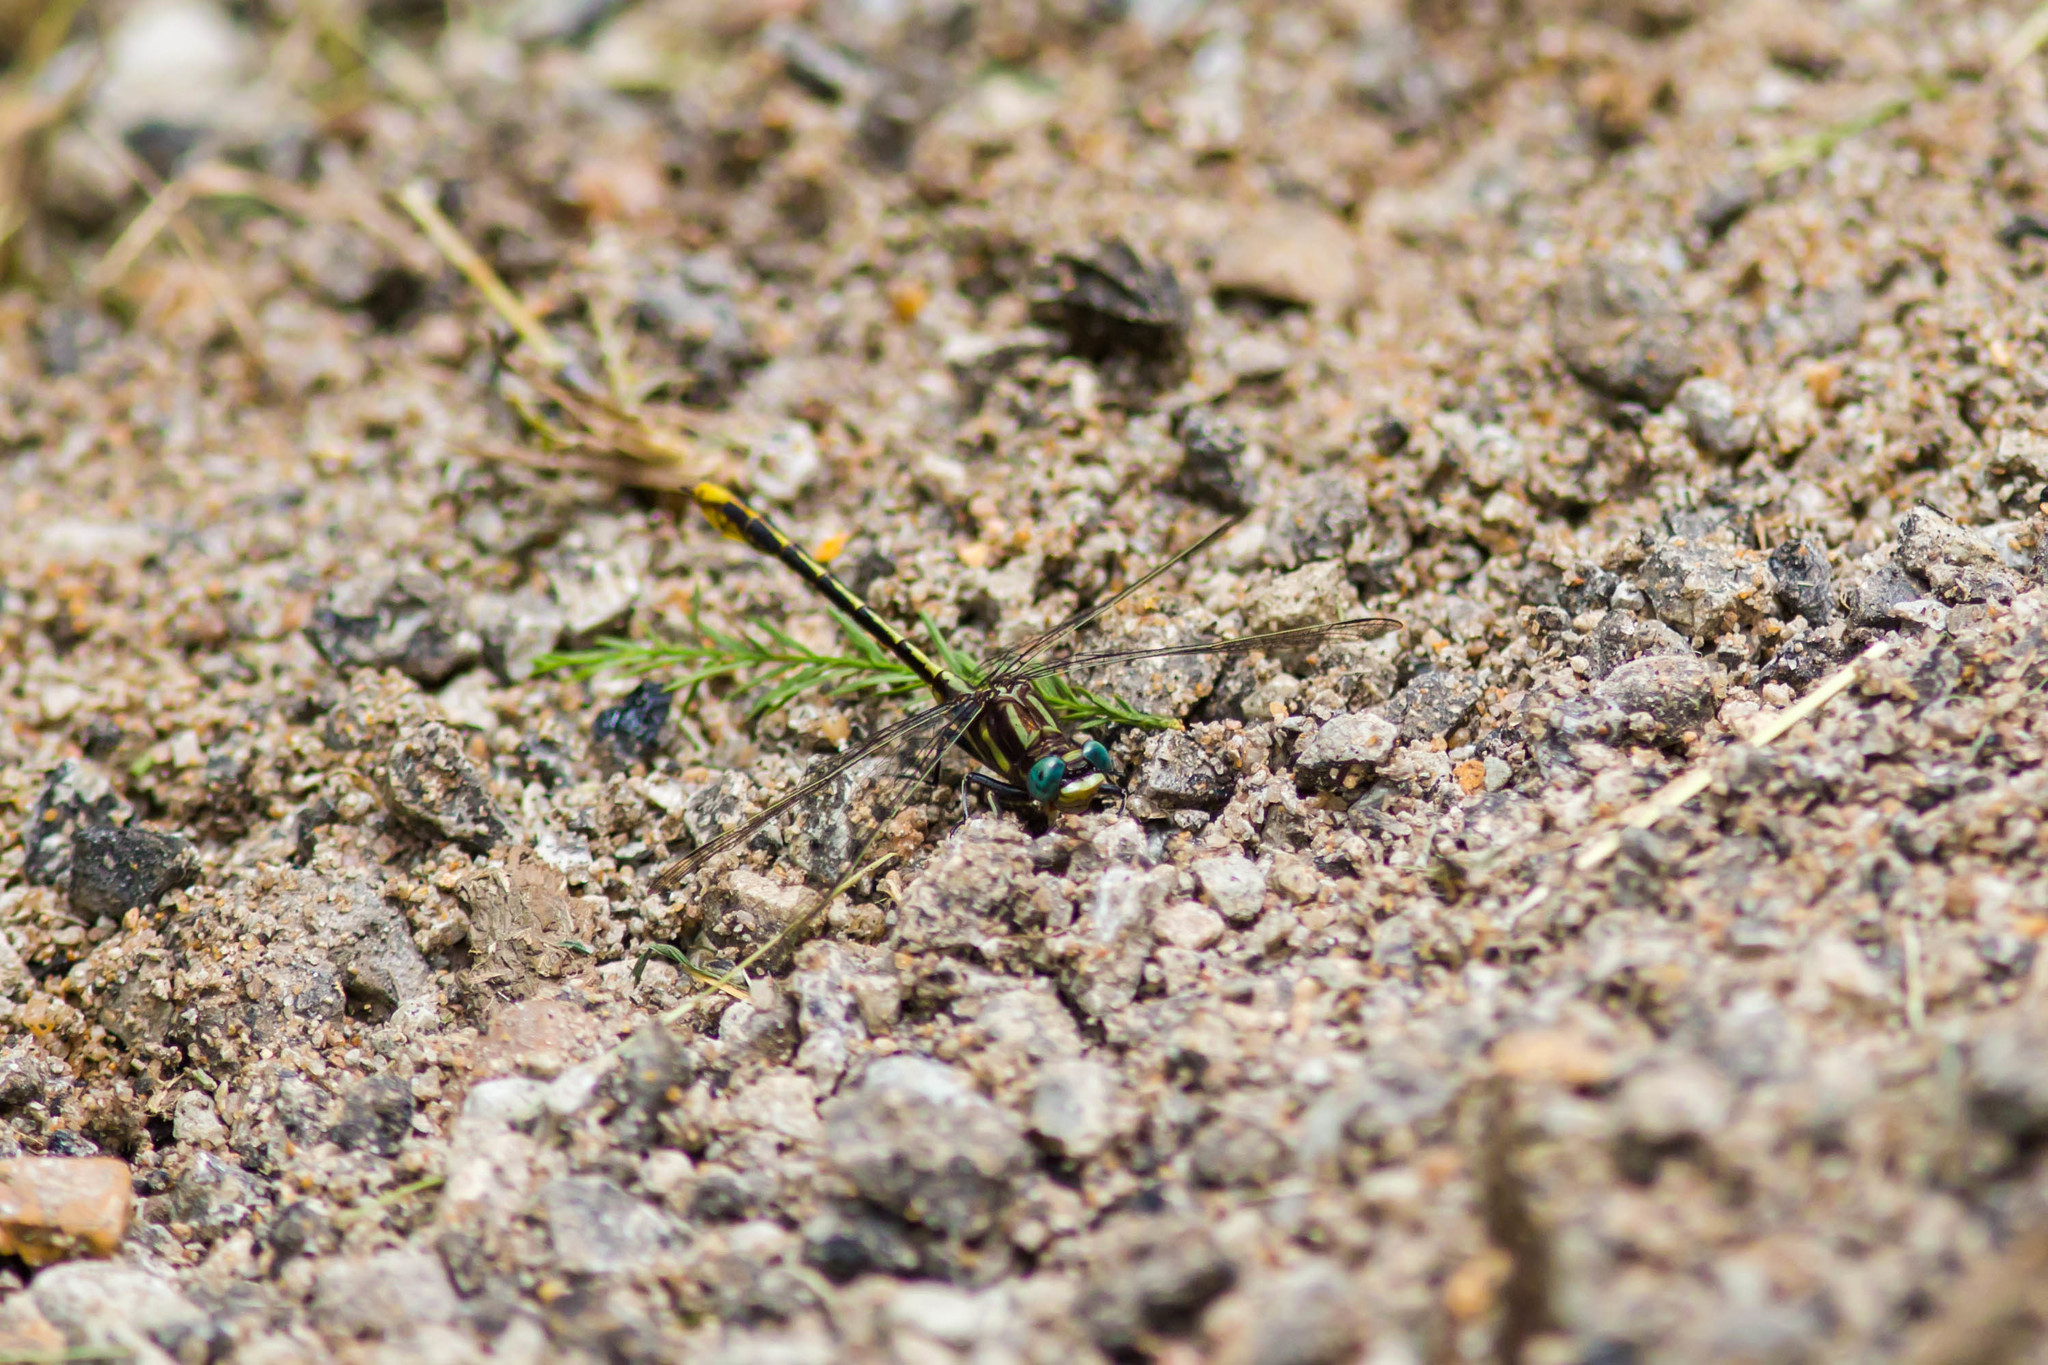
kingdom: Animalia
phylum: Arthropoda
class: Insecta
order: Odonata
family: Gomphidae
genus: Phanogomphus
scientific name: Phanogomphus exilis
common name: Lancet clubtail
